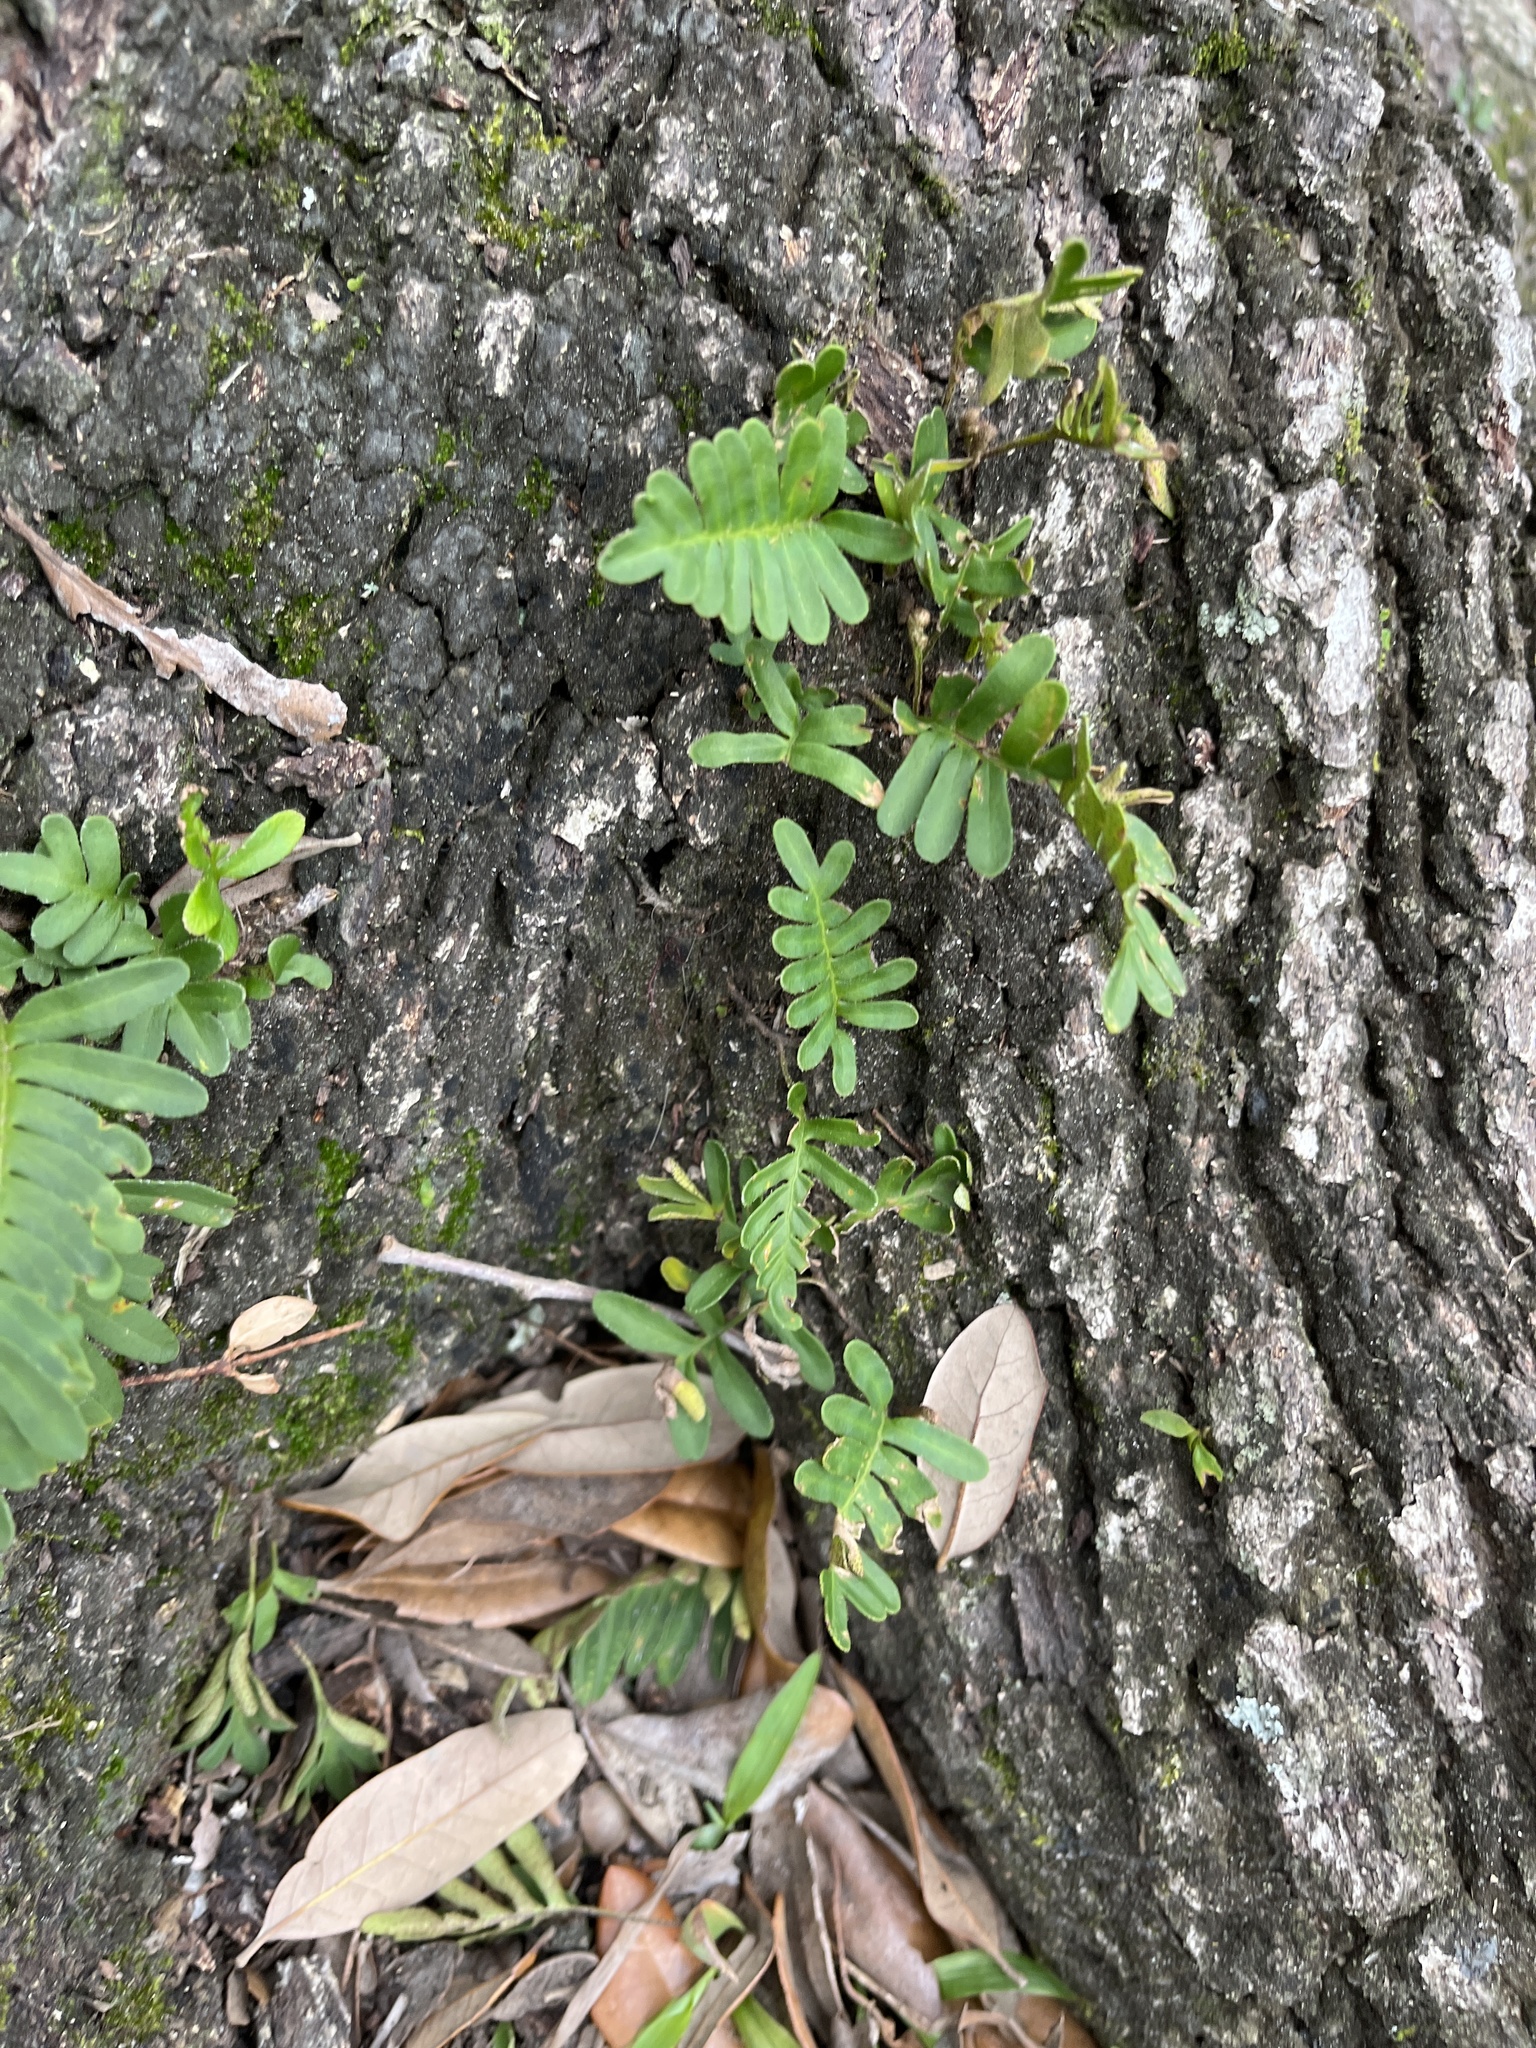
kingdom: Plantae
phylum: Tracheophyta
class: Polypodiopsida
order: Polypodiales
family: Polypodiaceae
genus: Pleopeltis
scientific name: Pleopeltis michauxiana
